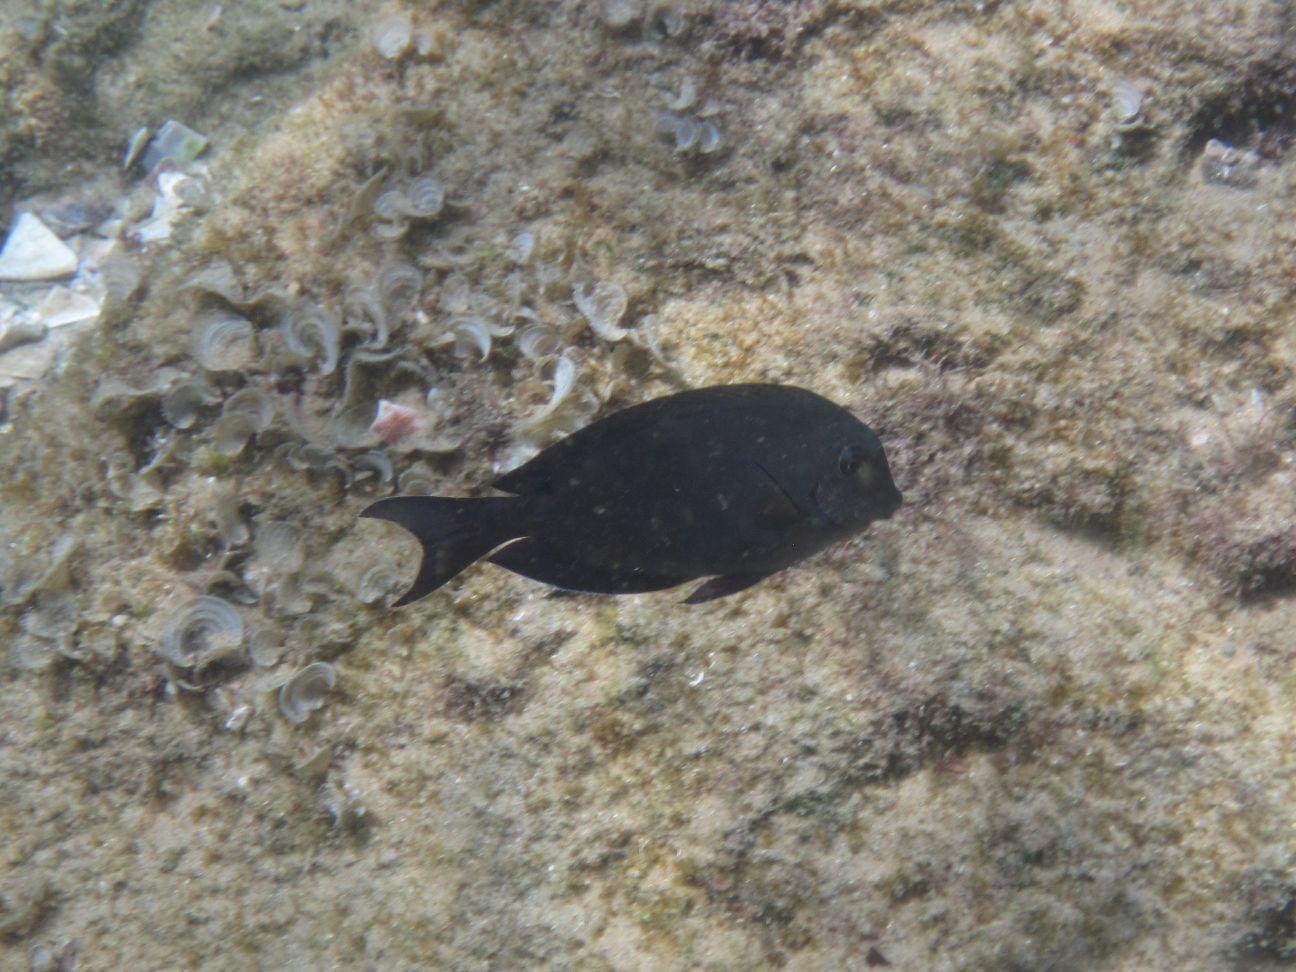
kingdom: Animalia
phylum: Chordata
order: Perciformes
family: Acanthuridae
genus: Acanthurus
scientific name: Acanthurus nigrofuscus
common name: Blackspot surgeonfish
